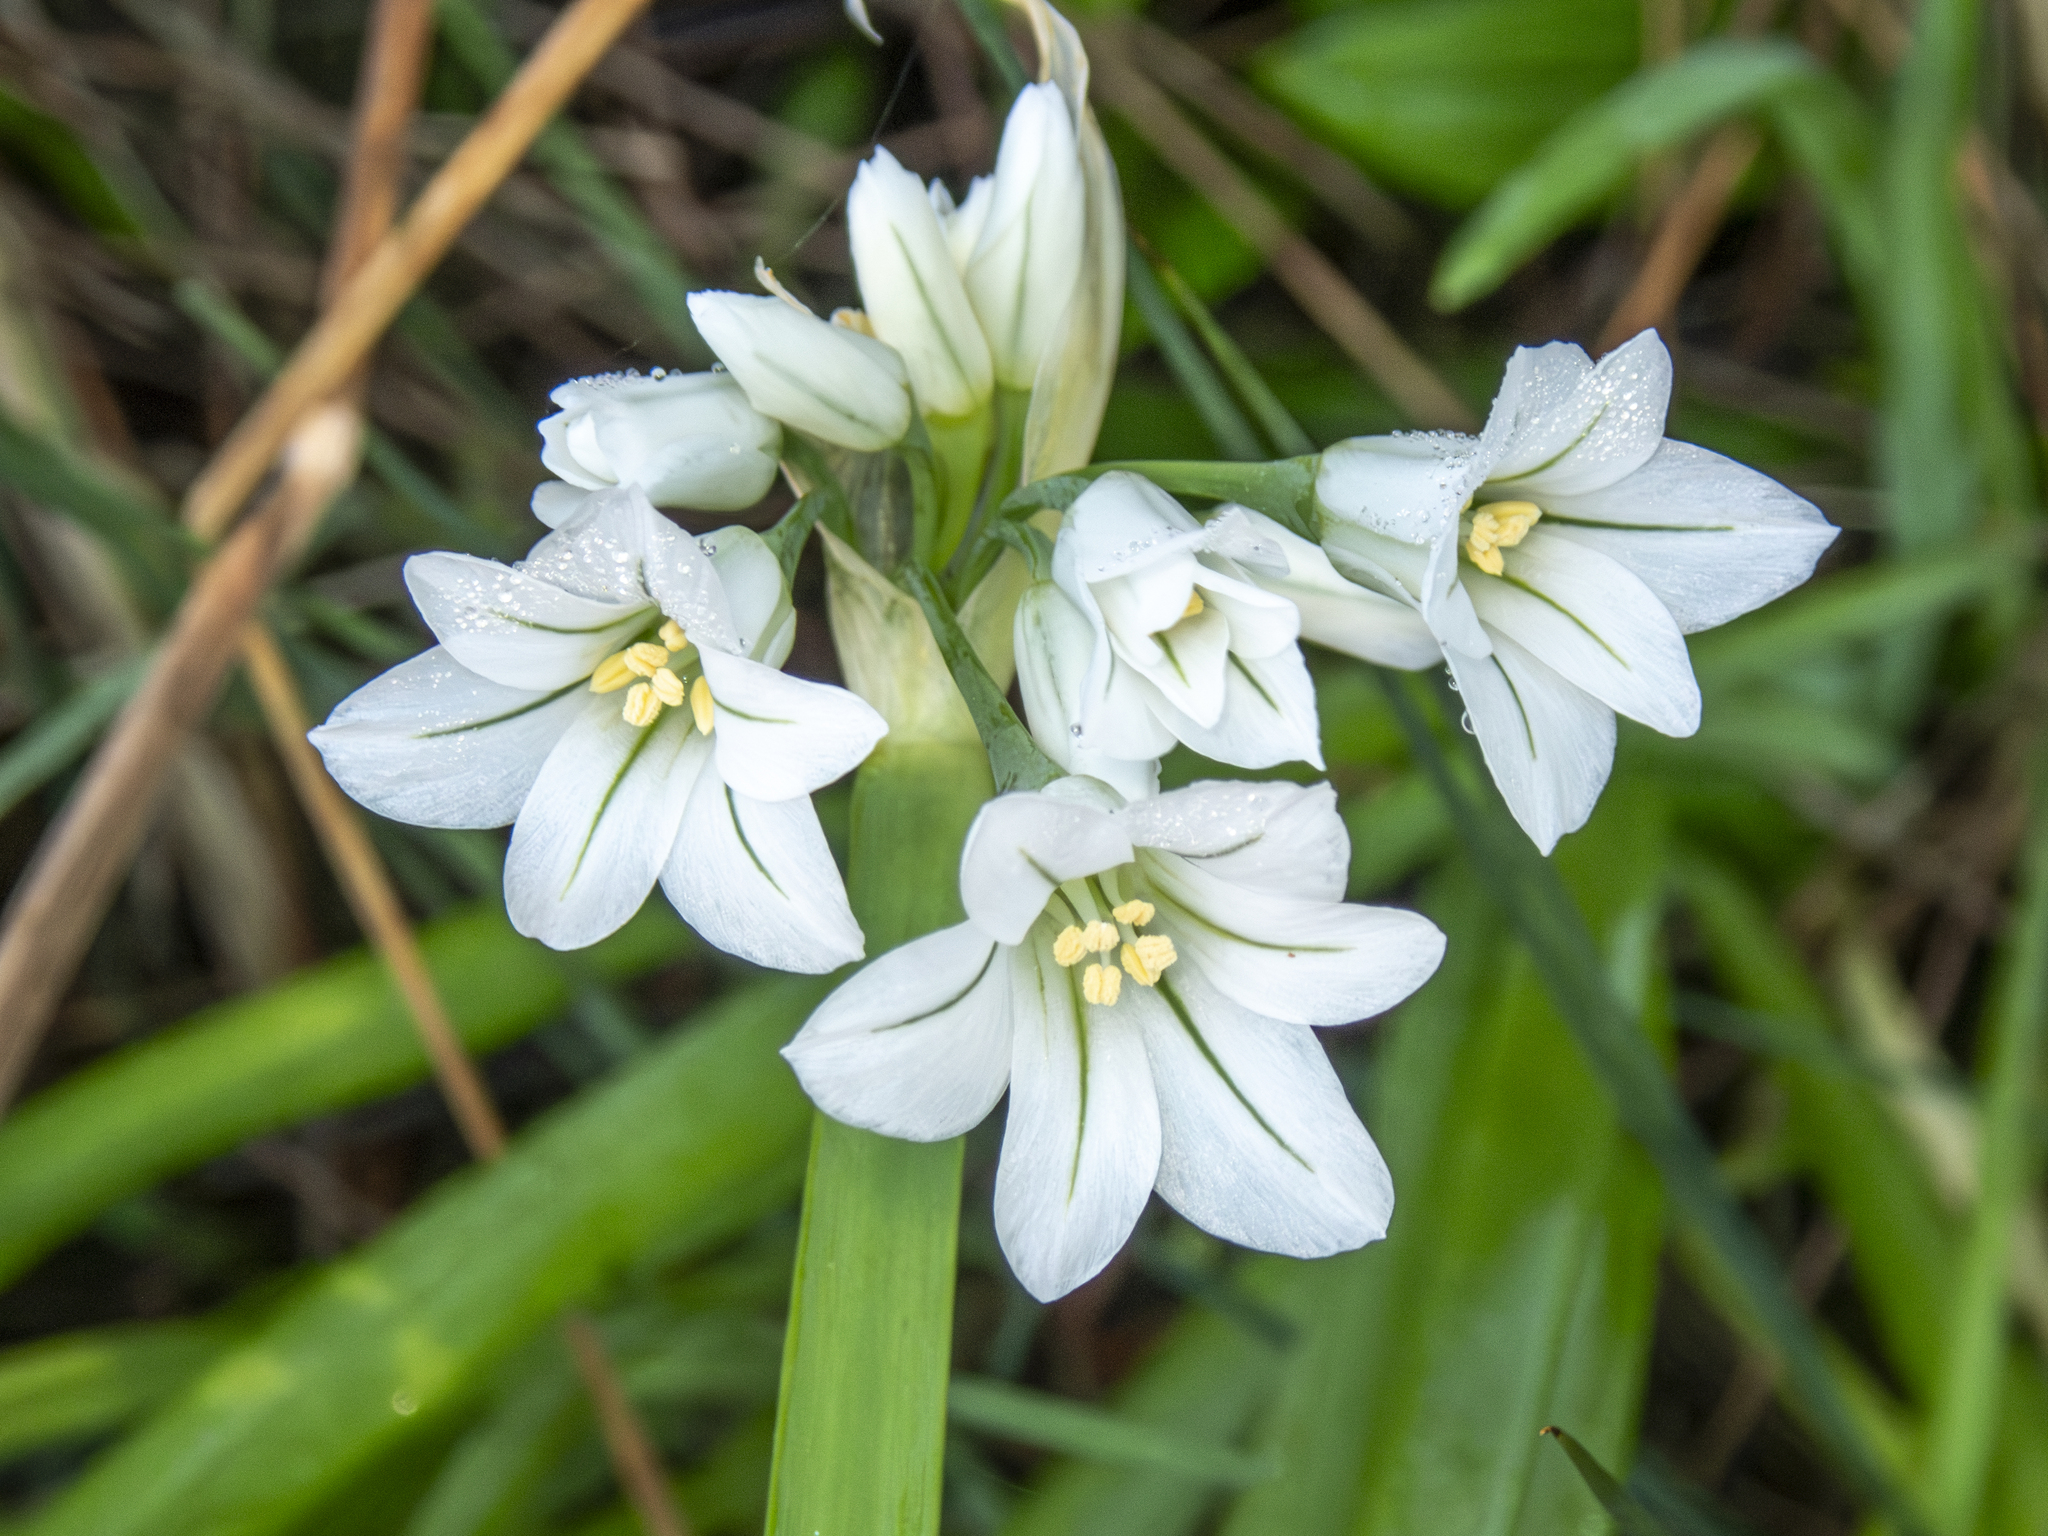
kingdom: Plantae
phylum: Tracheophyta
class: Liliopsida
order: Asparagales
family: Amaryllidaceae
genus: Allium
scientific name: Allium triquetrum
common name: Three-cornered garlic
